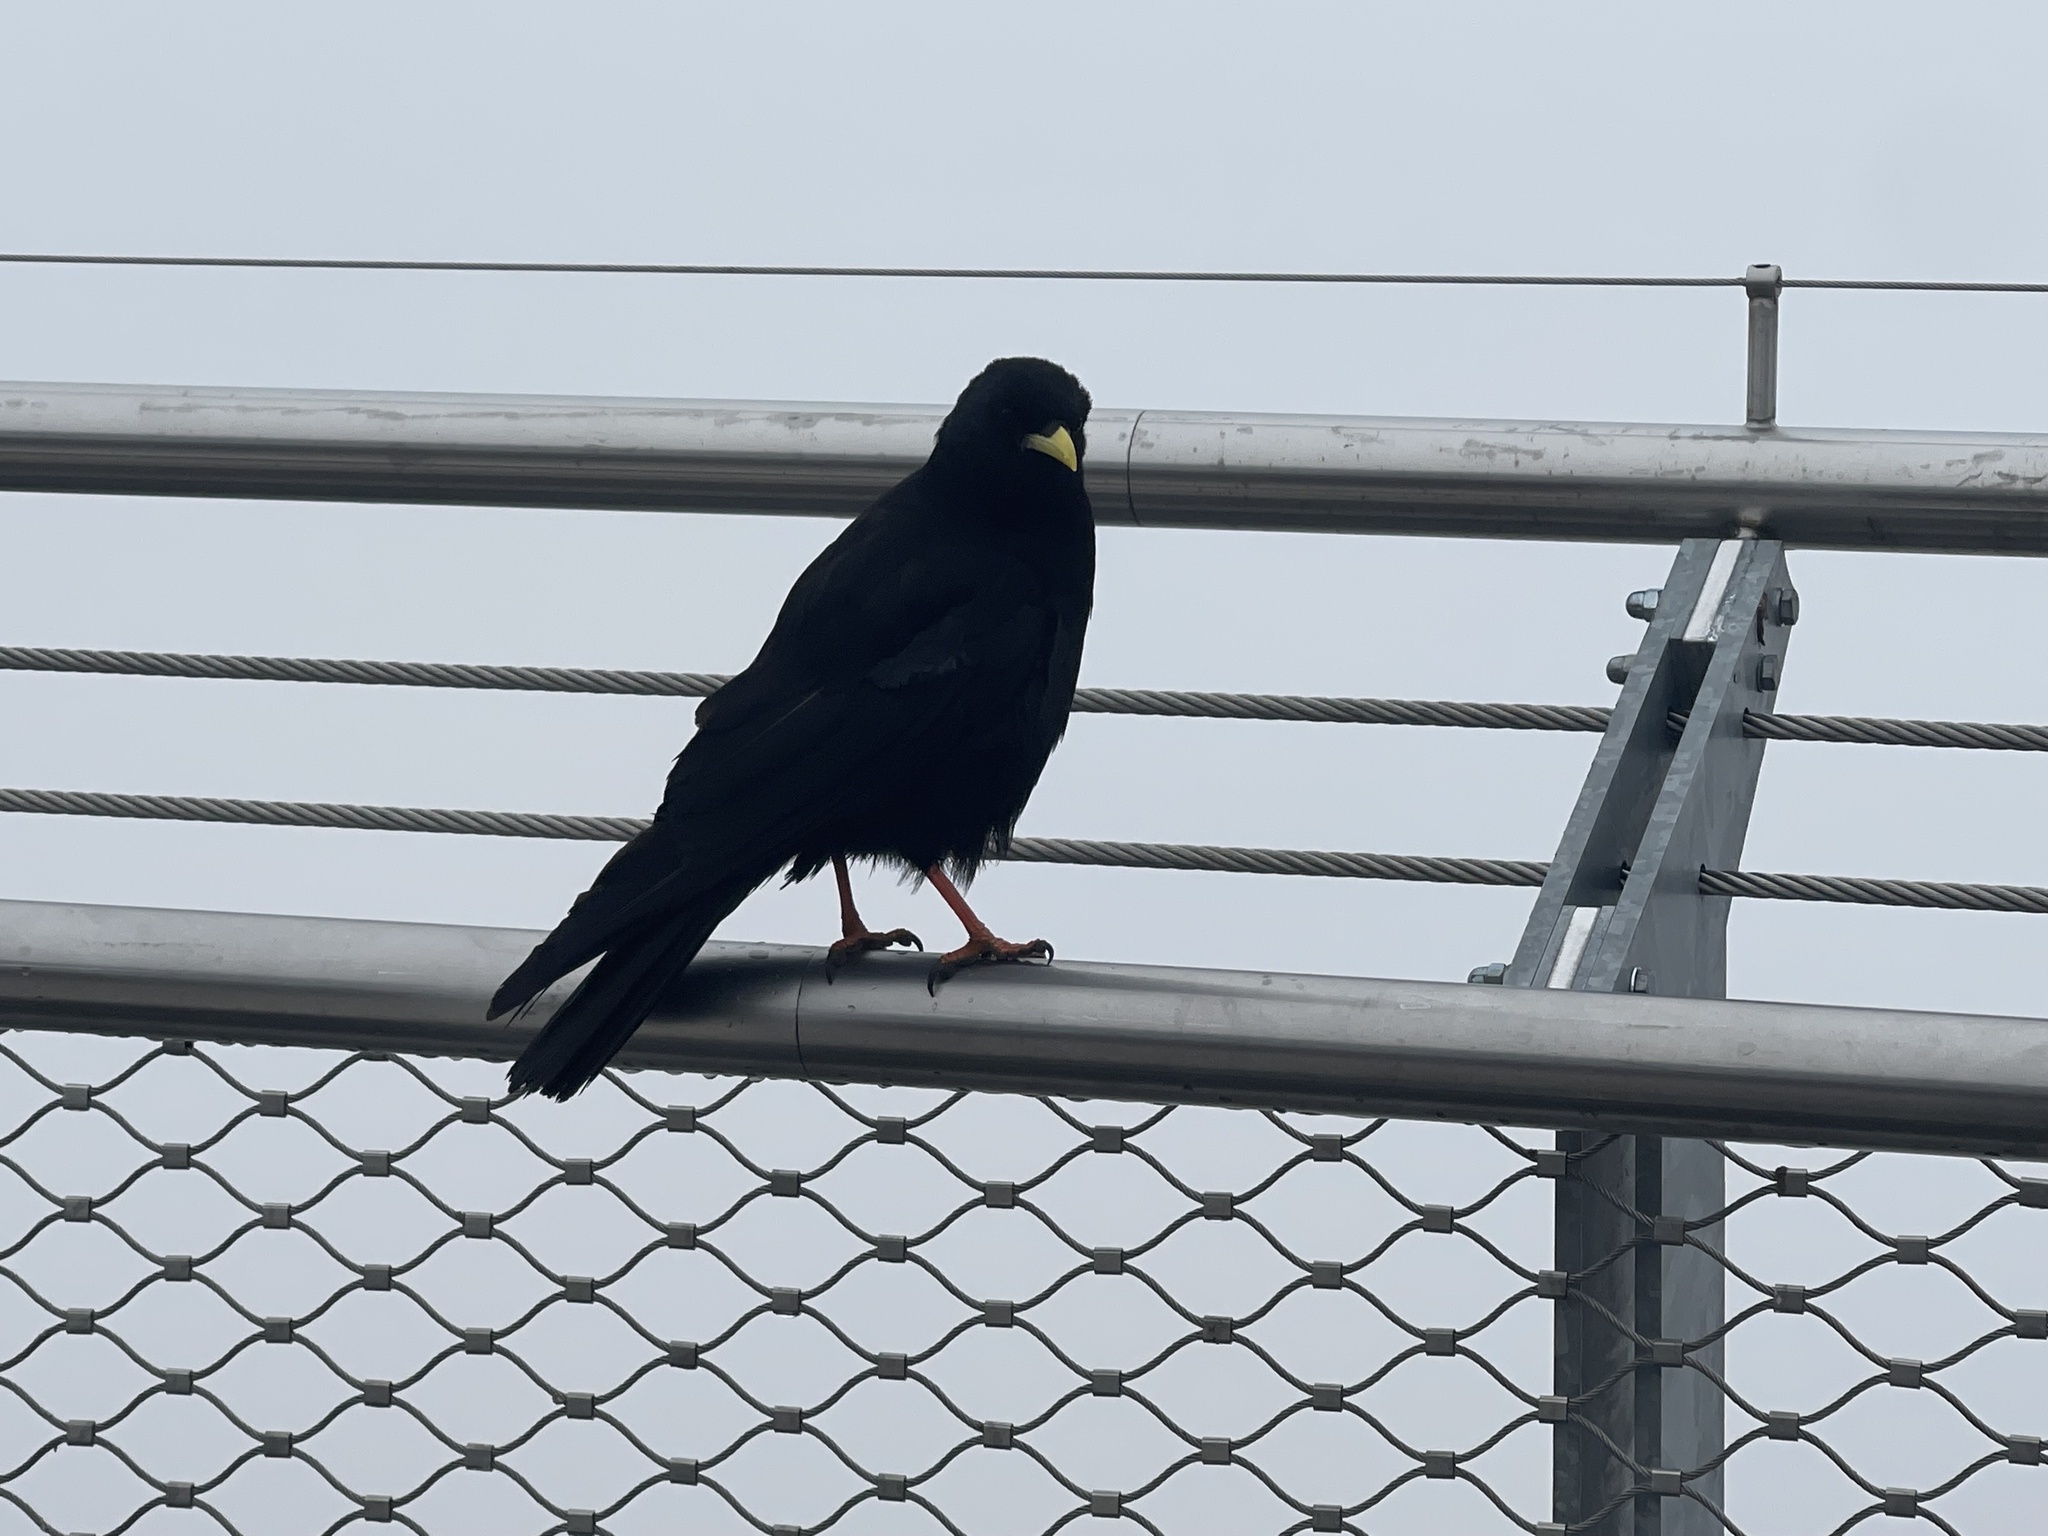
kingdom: Animalia
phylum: Chordata
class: Aves
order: Passeriformes
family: Corvidae
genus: Pyrrhocorax
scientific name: Pyrrhocorax graculus
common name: Alpine chough
